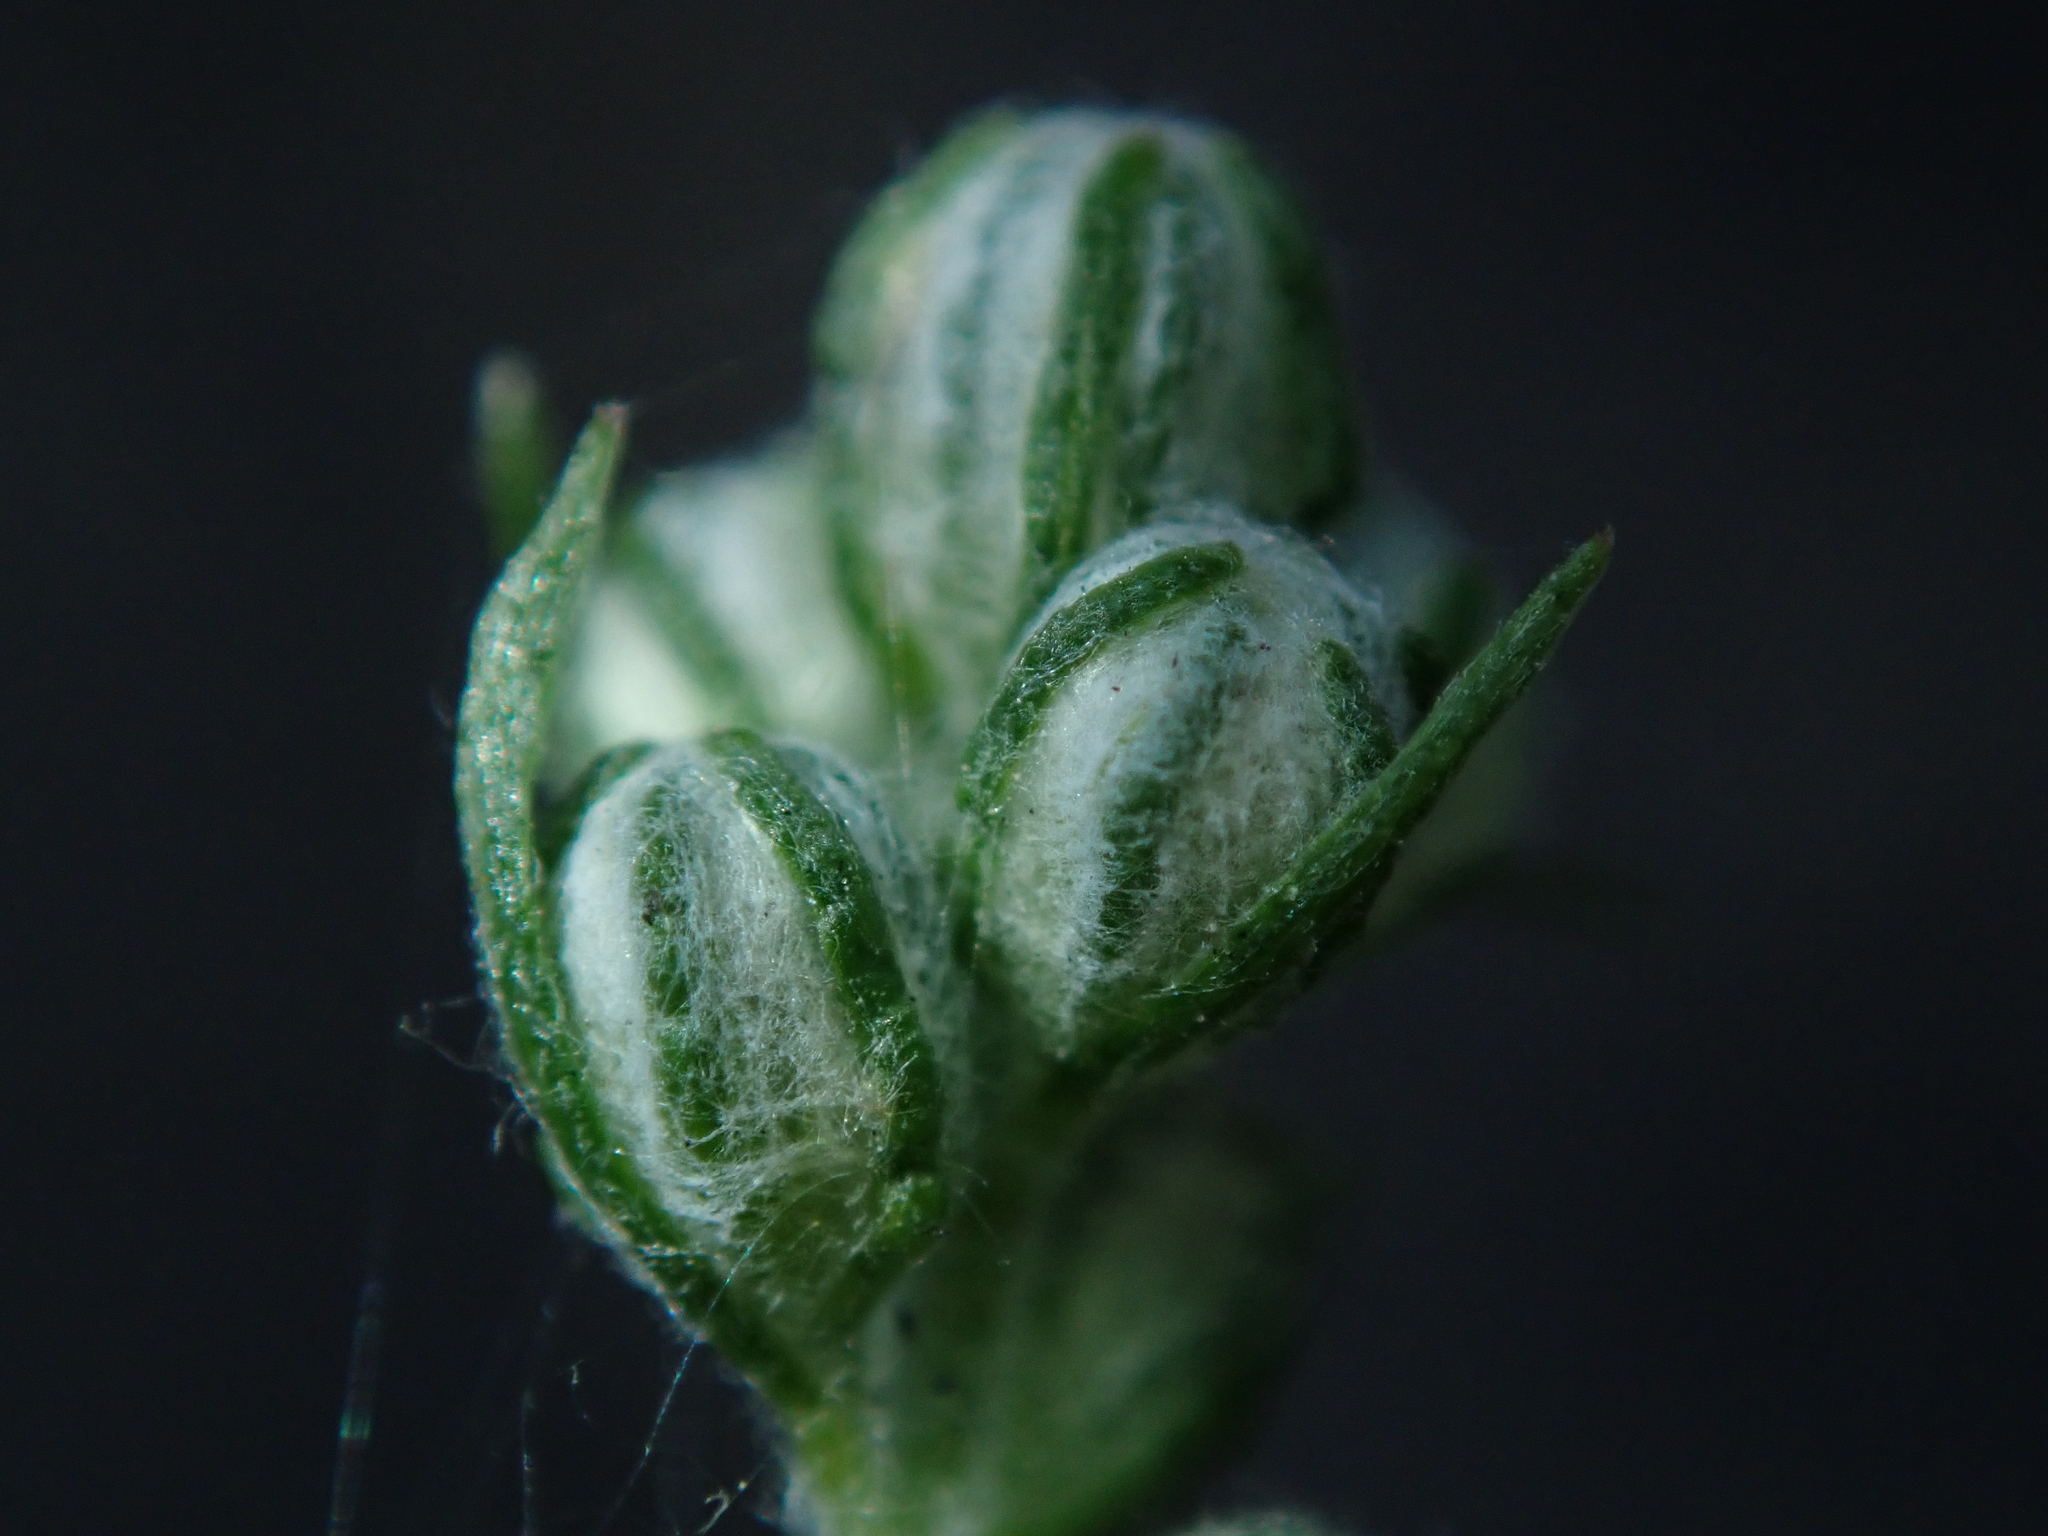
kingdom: Plantae
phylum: Tracheophyta
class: Magnoliopsida
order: Asterales
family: Asteraceae
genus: Artemisia
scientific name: Artemisia vulgaris
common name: Mugwort
